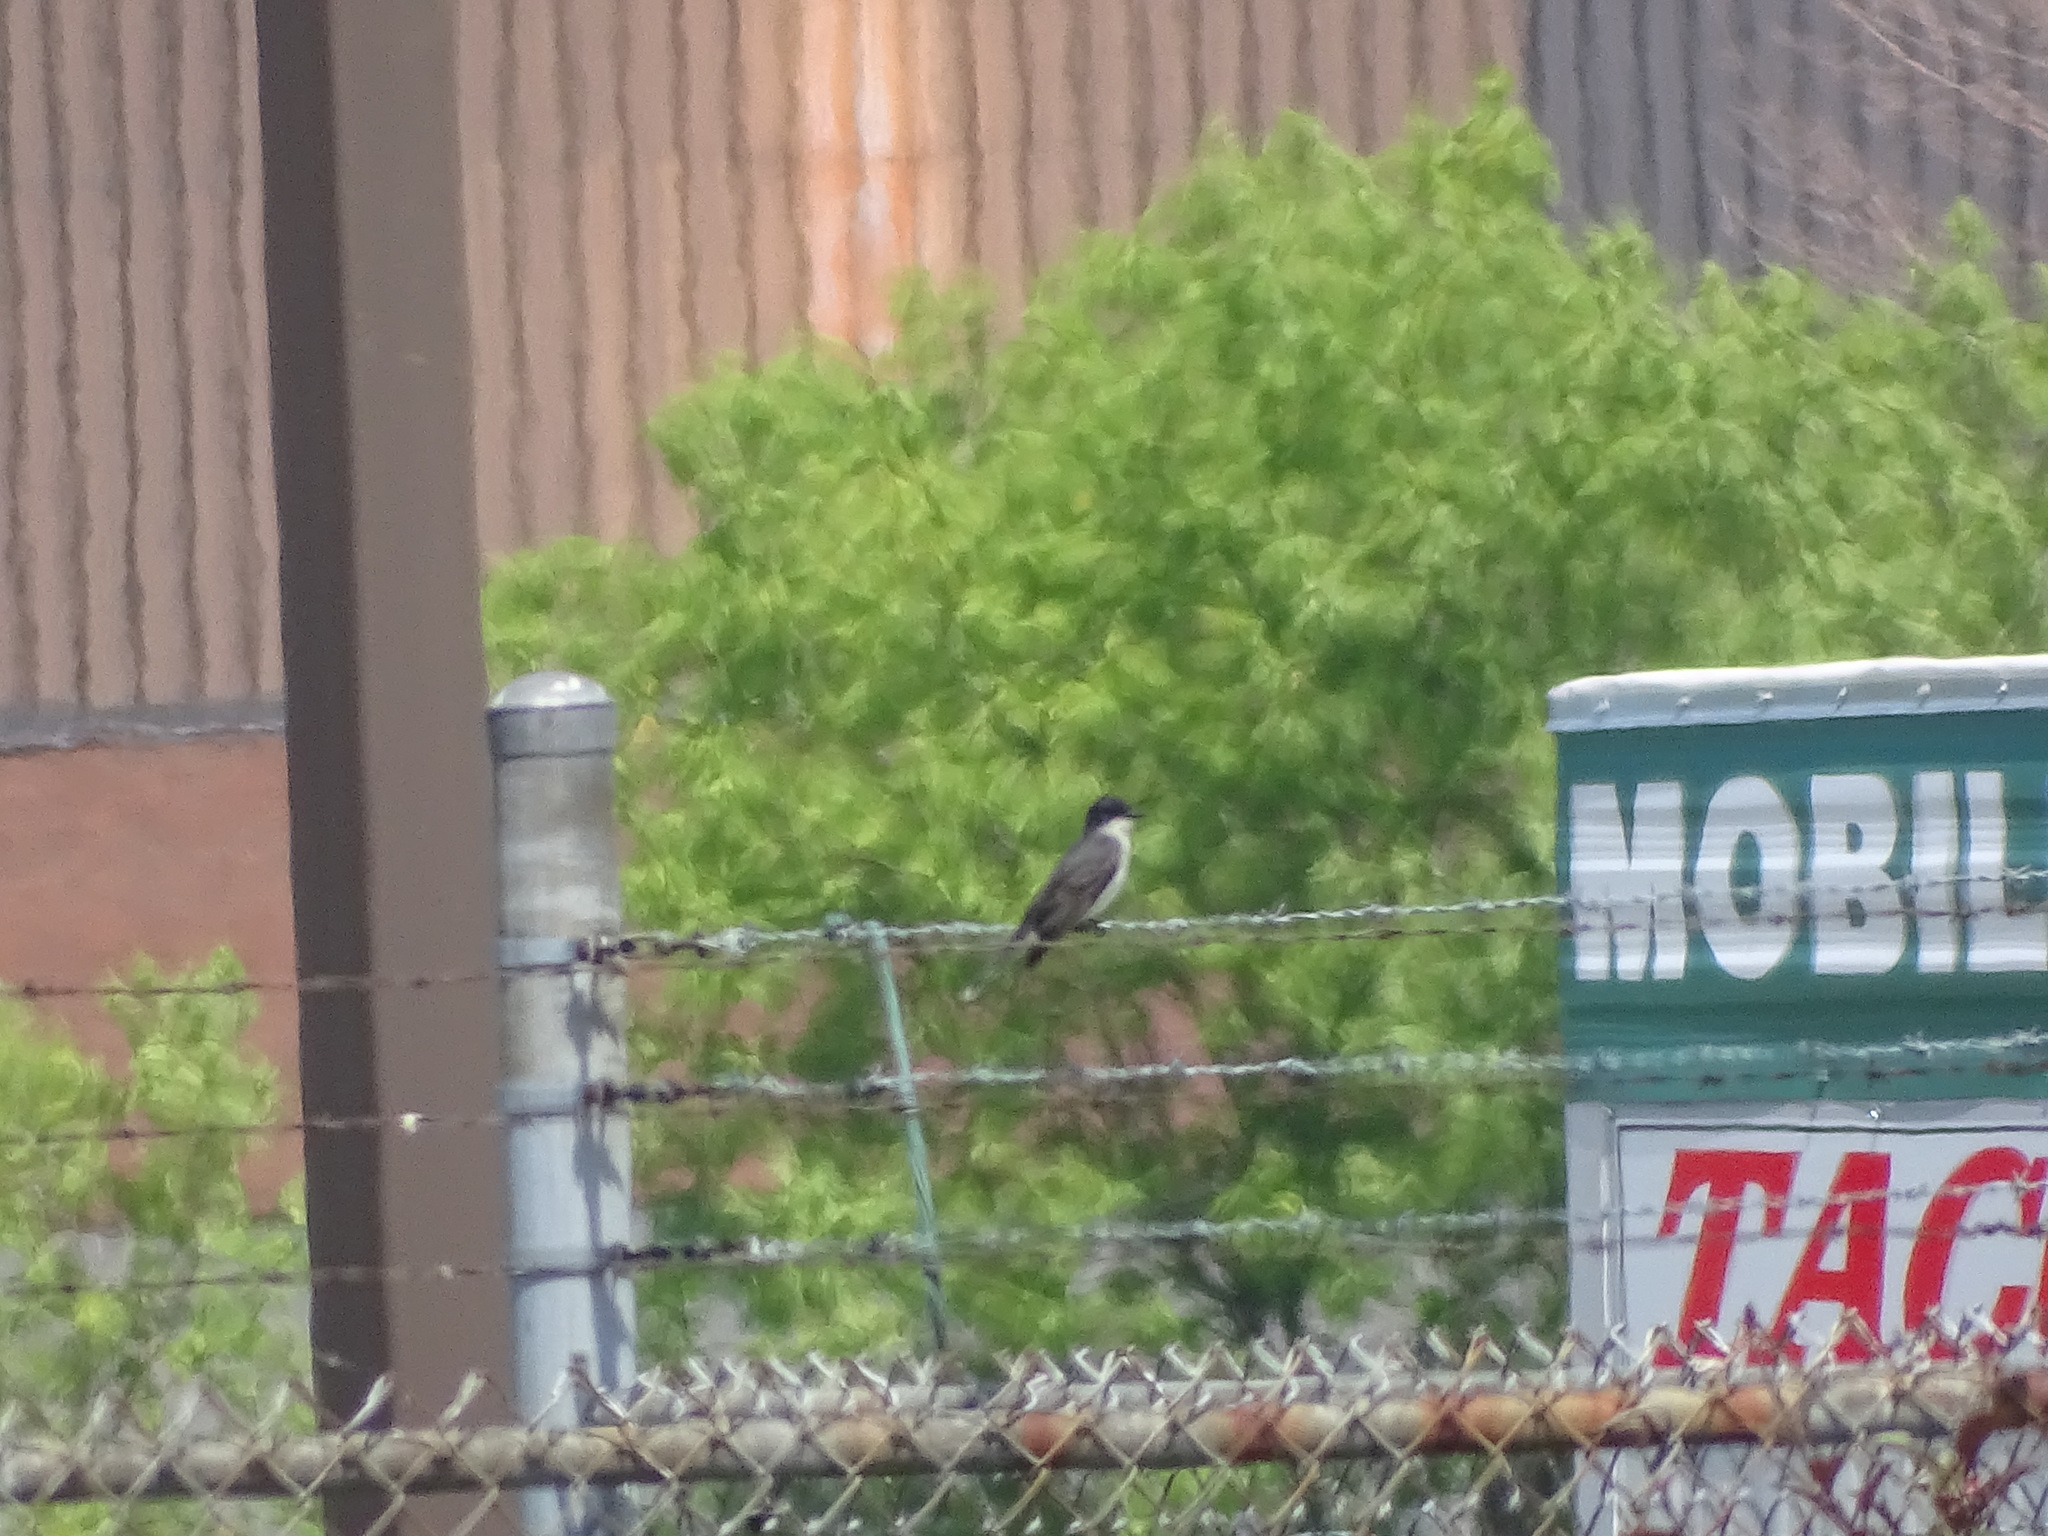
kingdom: Animalia
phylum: Chordata
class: Aves
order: Passeriformes
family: Tyrannidae
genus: Tyrannus
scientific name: Tyrannus tyrannus
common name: Eastern kingbird
